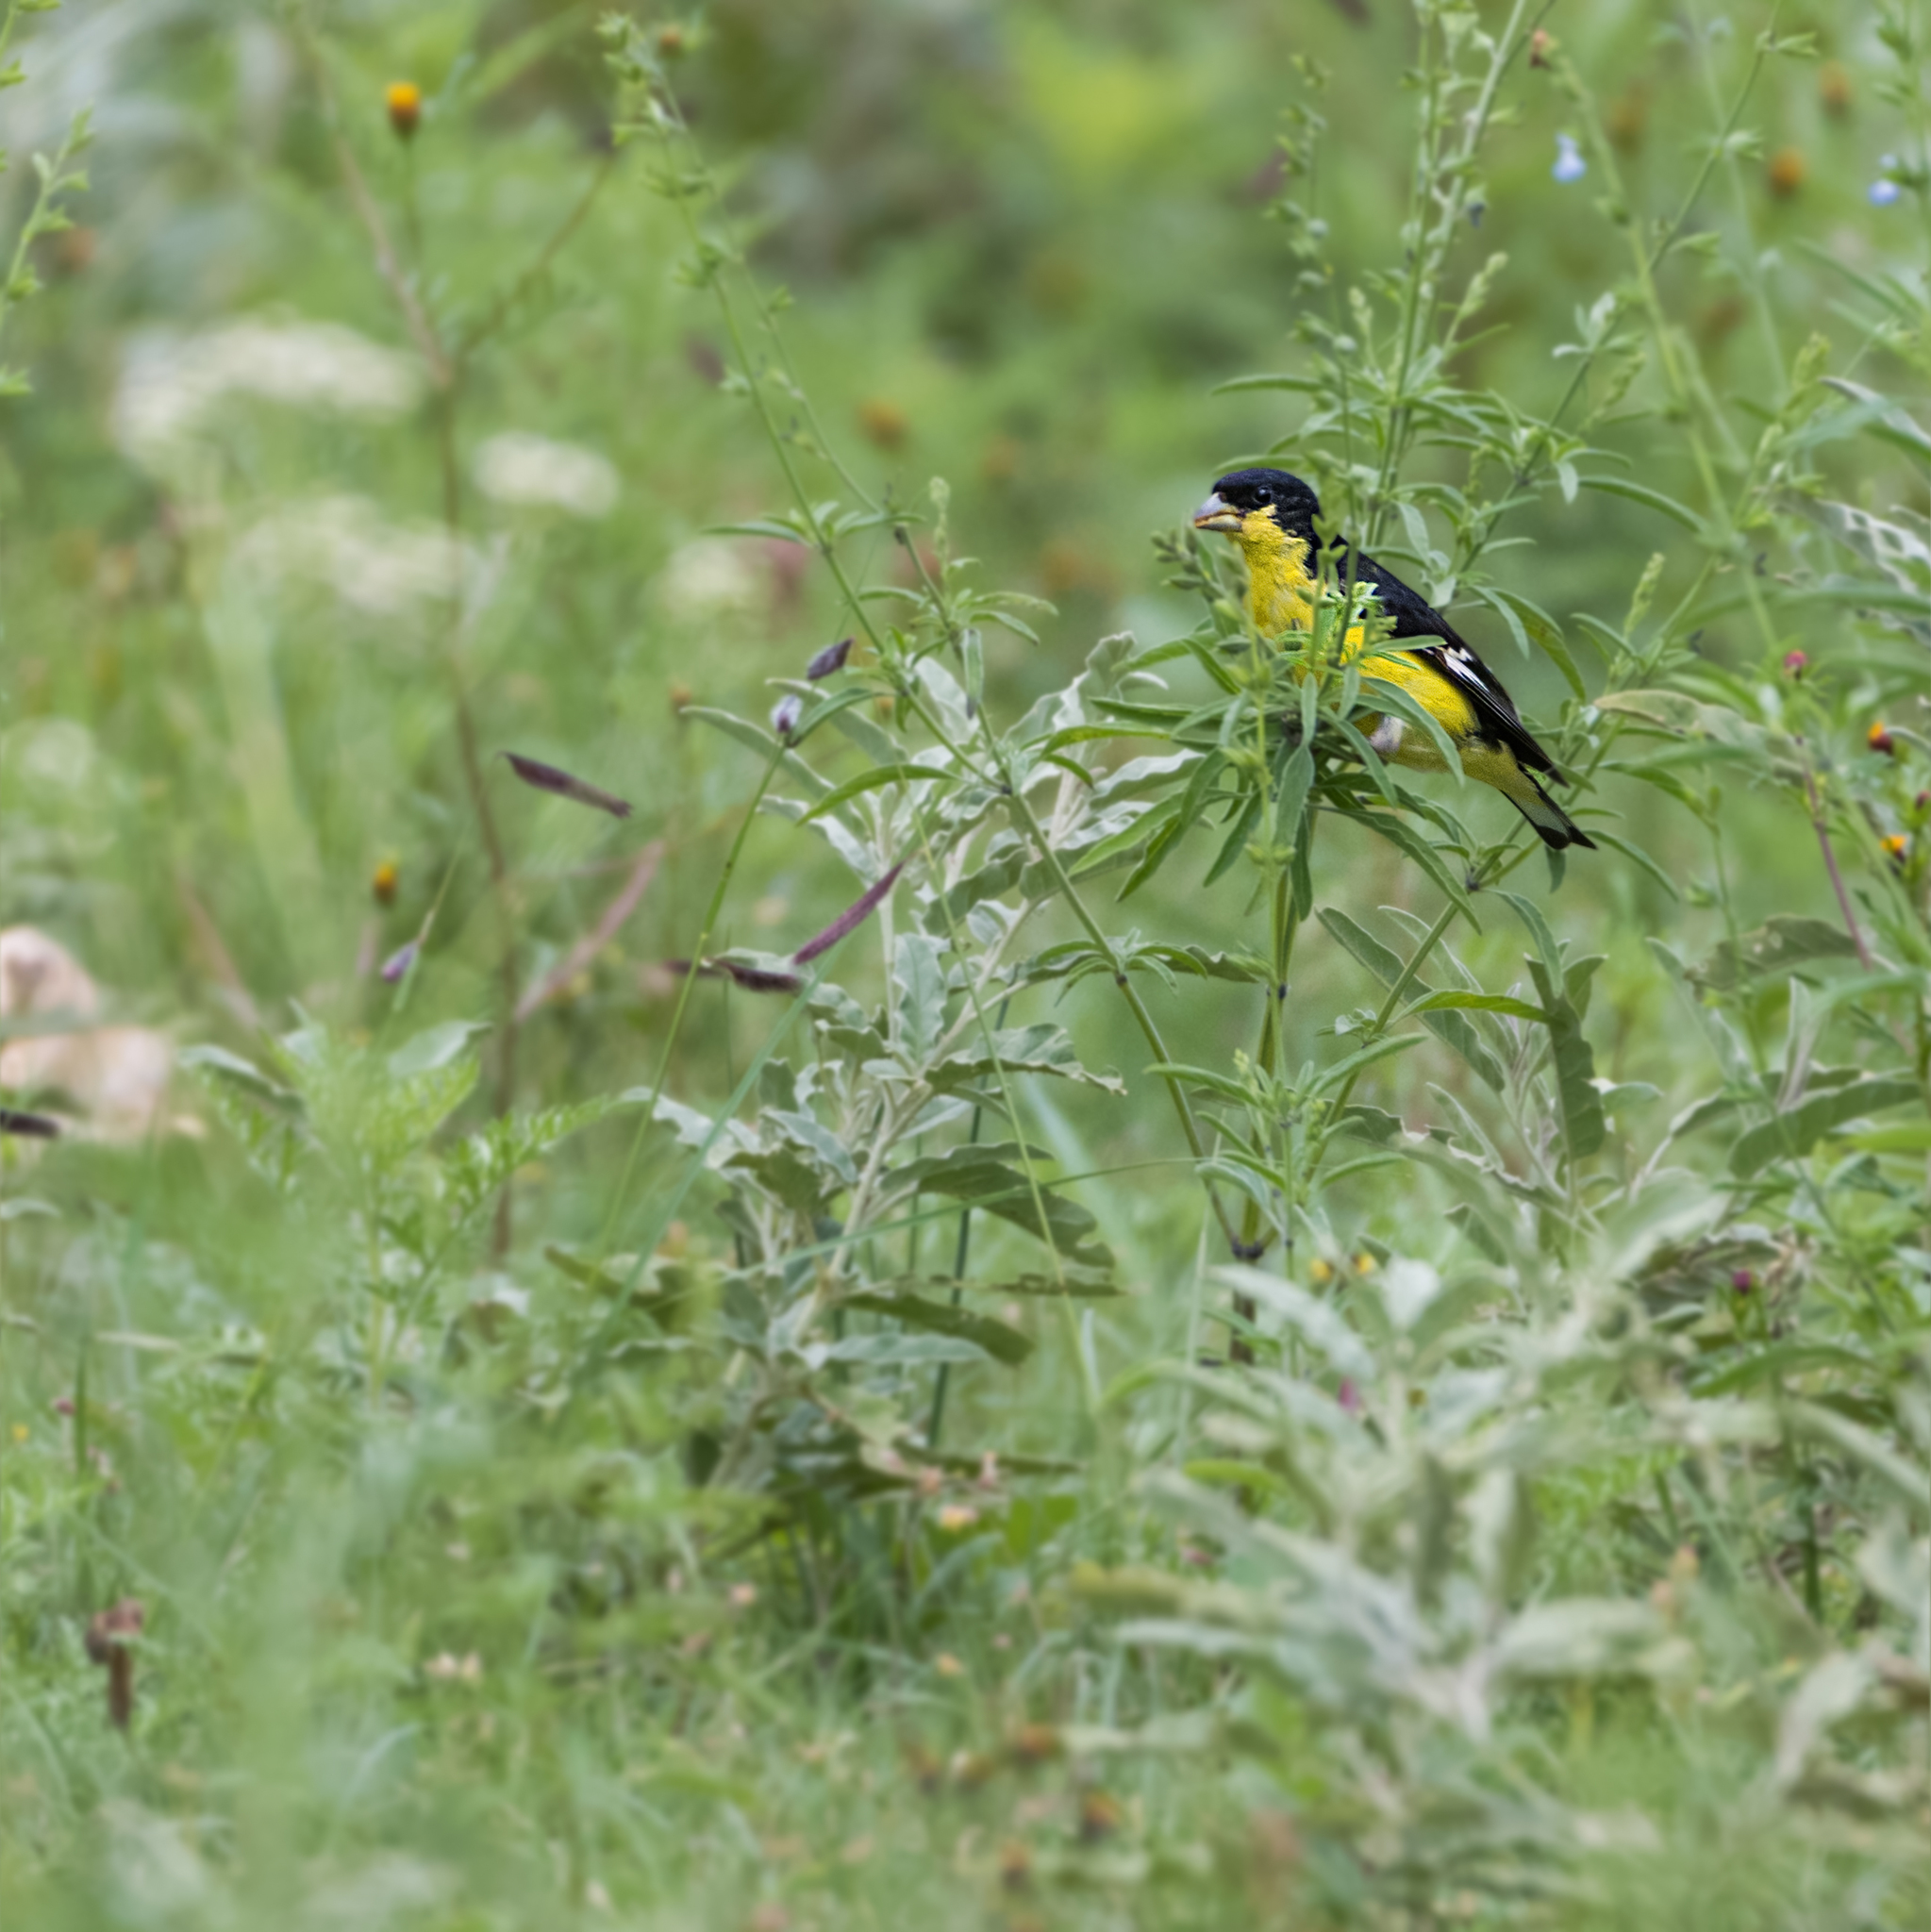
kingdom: Animalia
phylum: Chordata
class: Aves
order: Passeriformes
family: Fringillidae
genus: Spinus
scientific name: Spinus psaltria
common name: Lesser goldfinch
